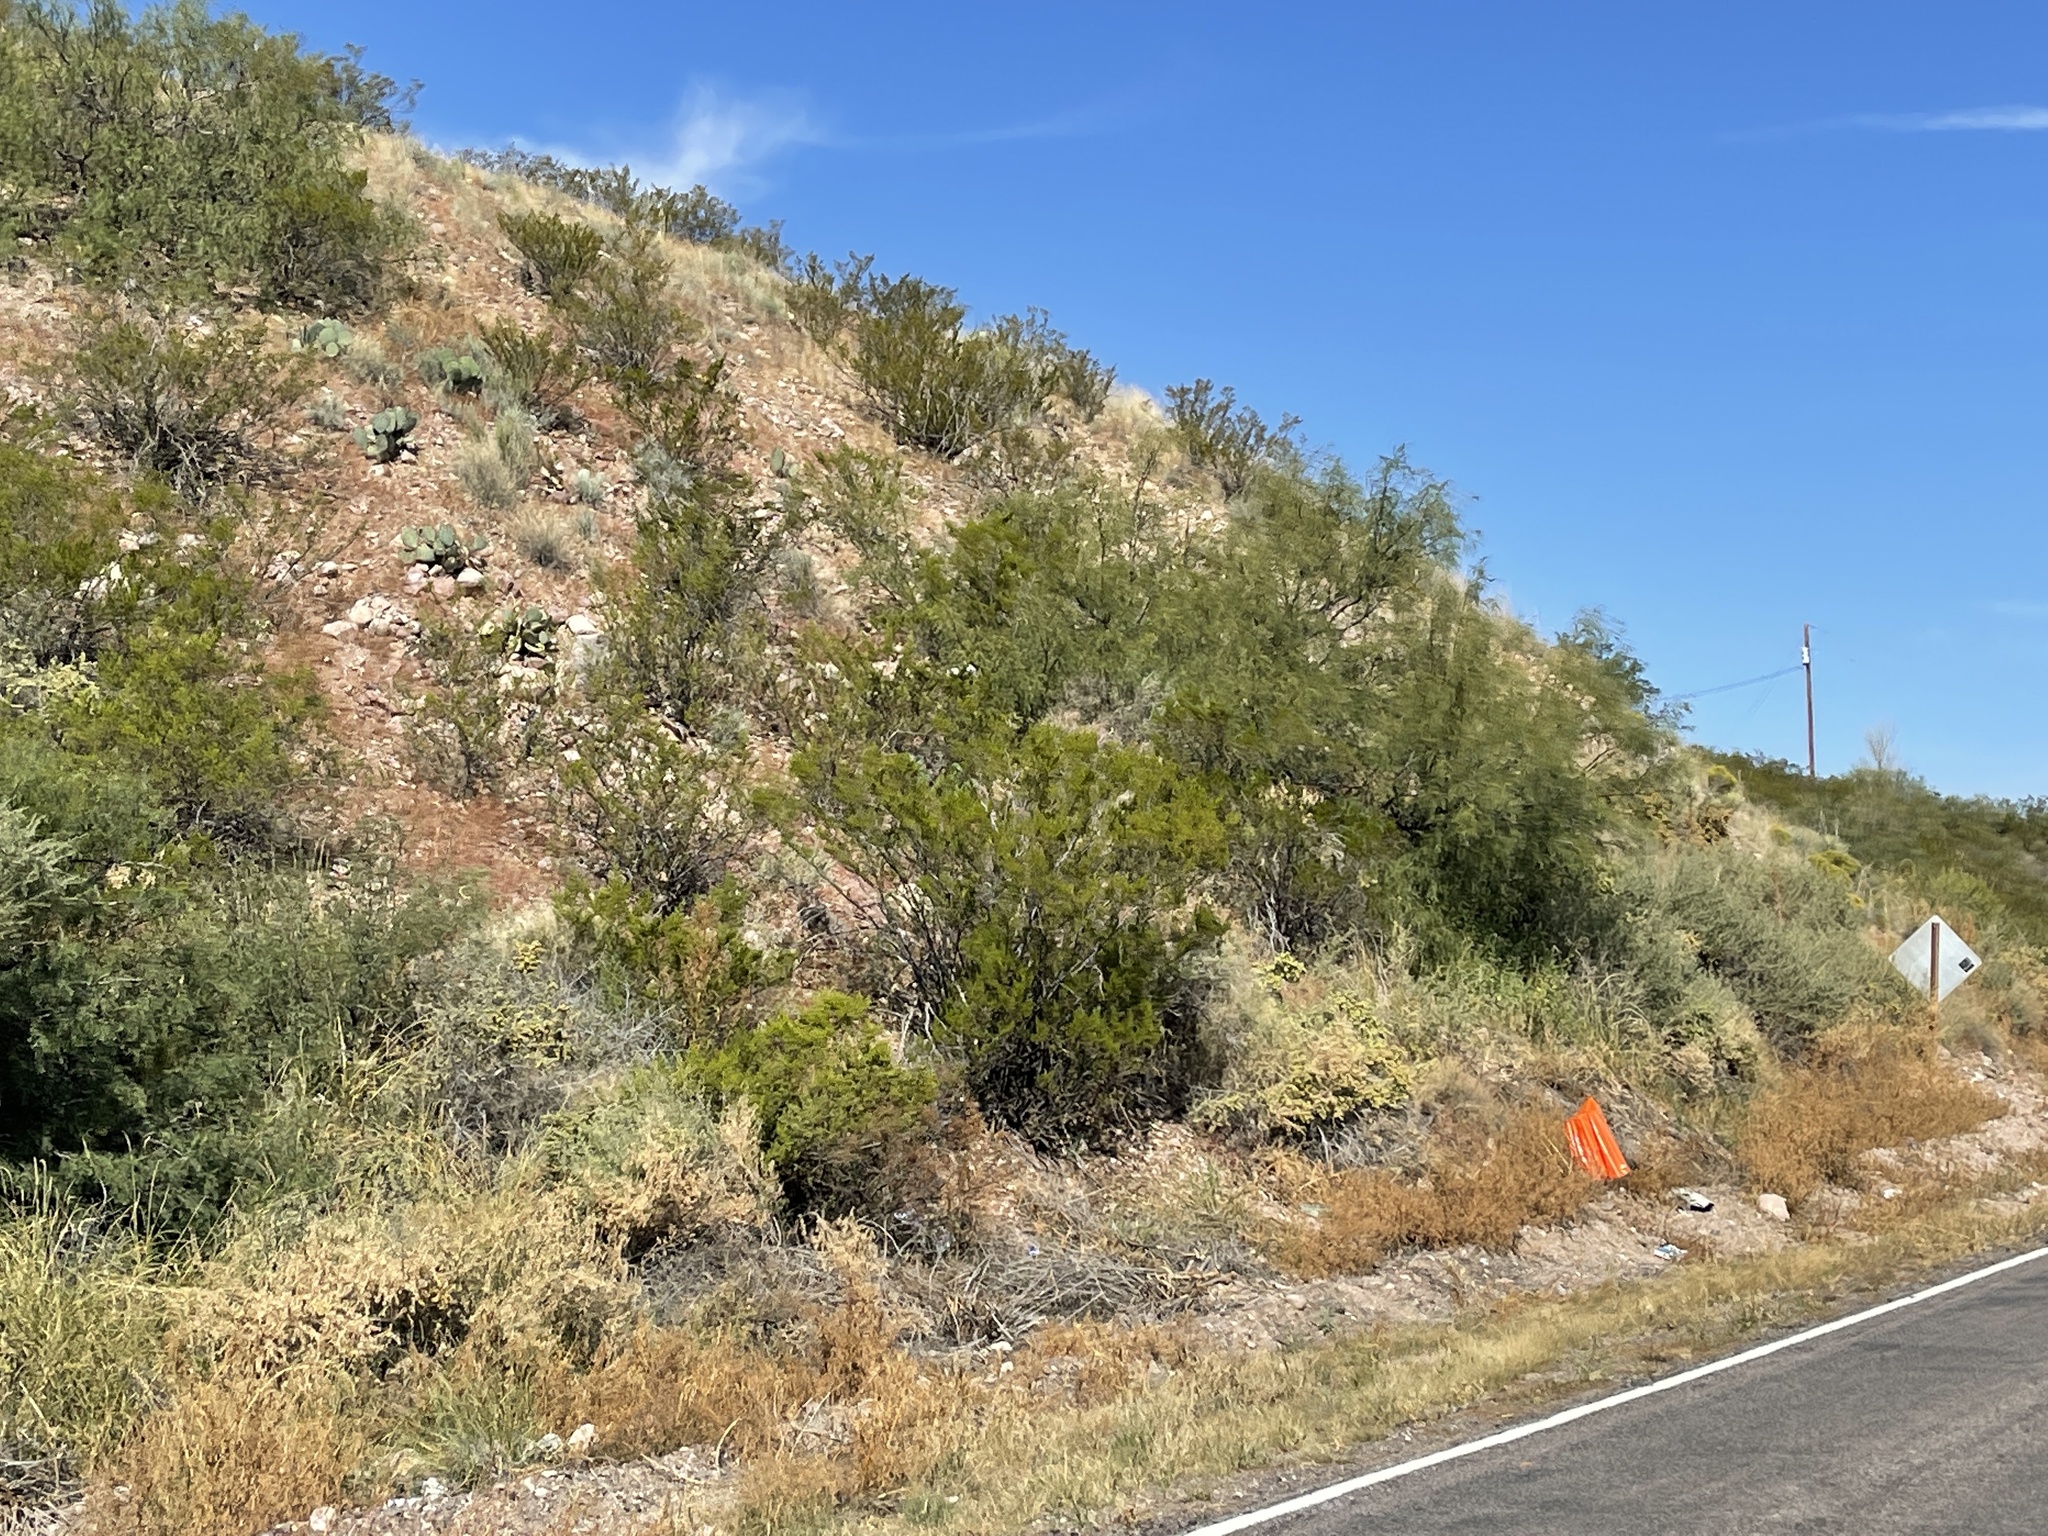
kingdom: Plantae
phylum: Tracheophyta
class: Magnoliopsida
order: Zygophyllales
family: Zygophyllaceae
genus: Larrea
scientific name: Larrea tridentata
